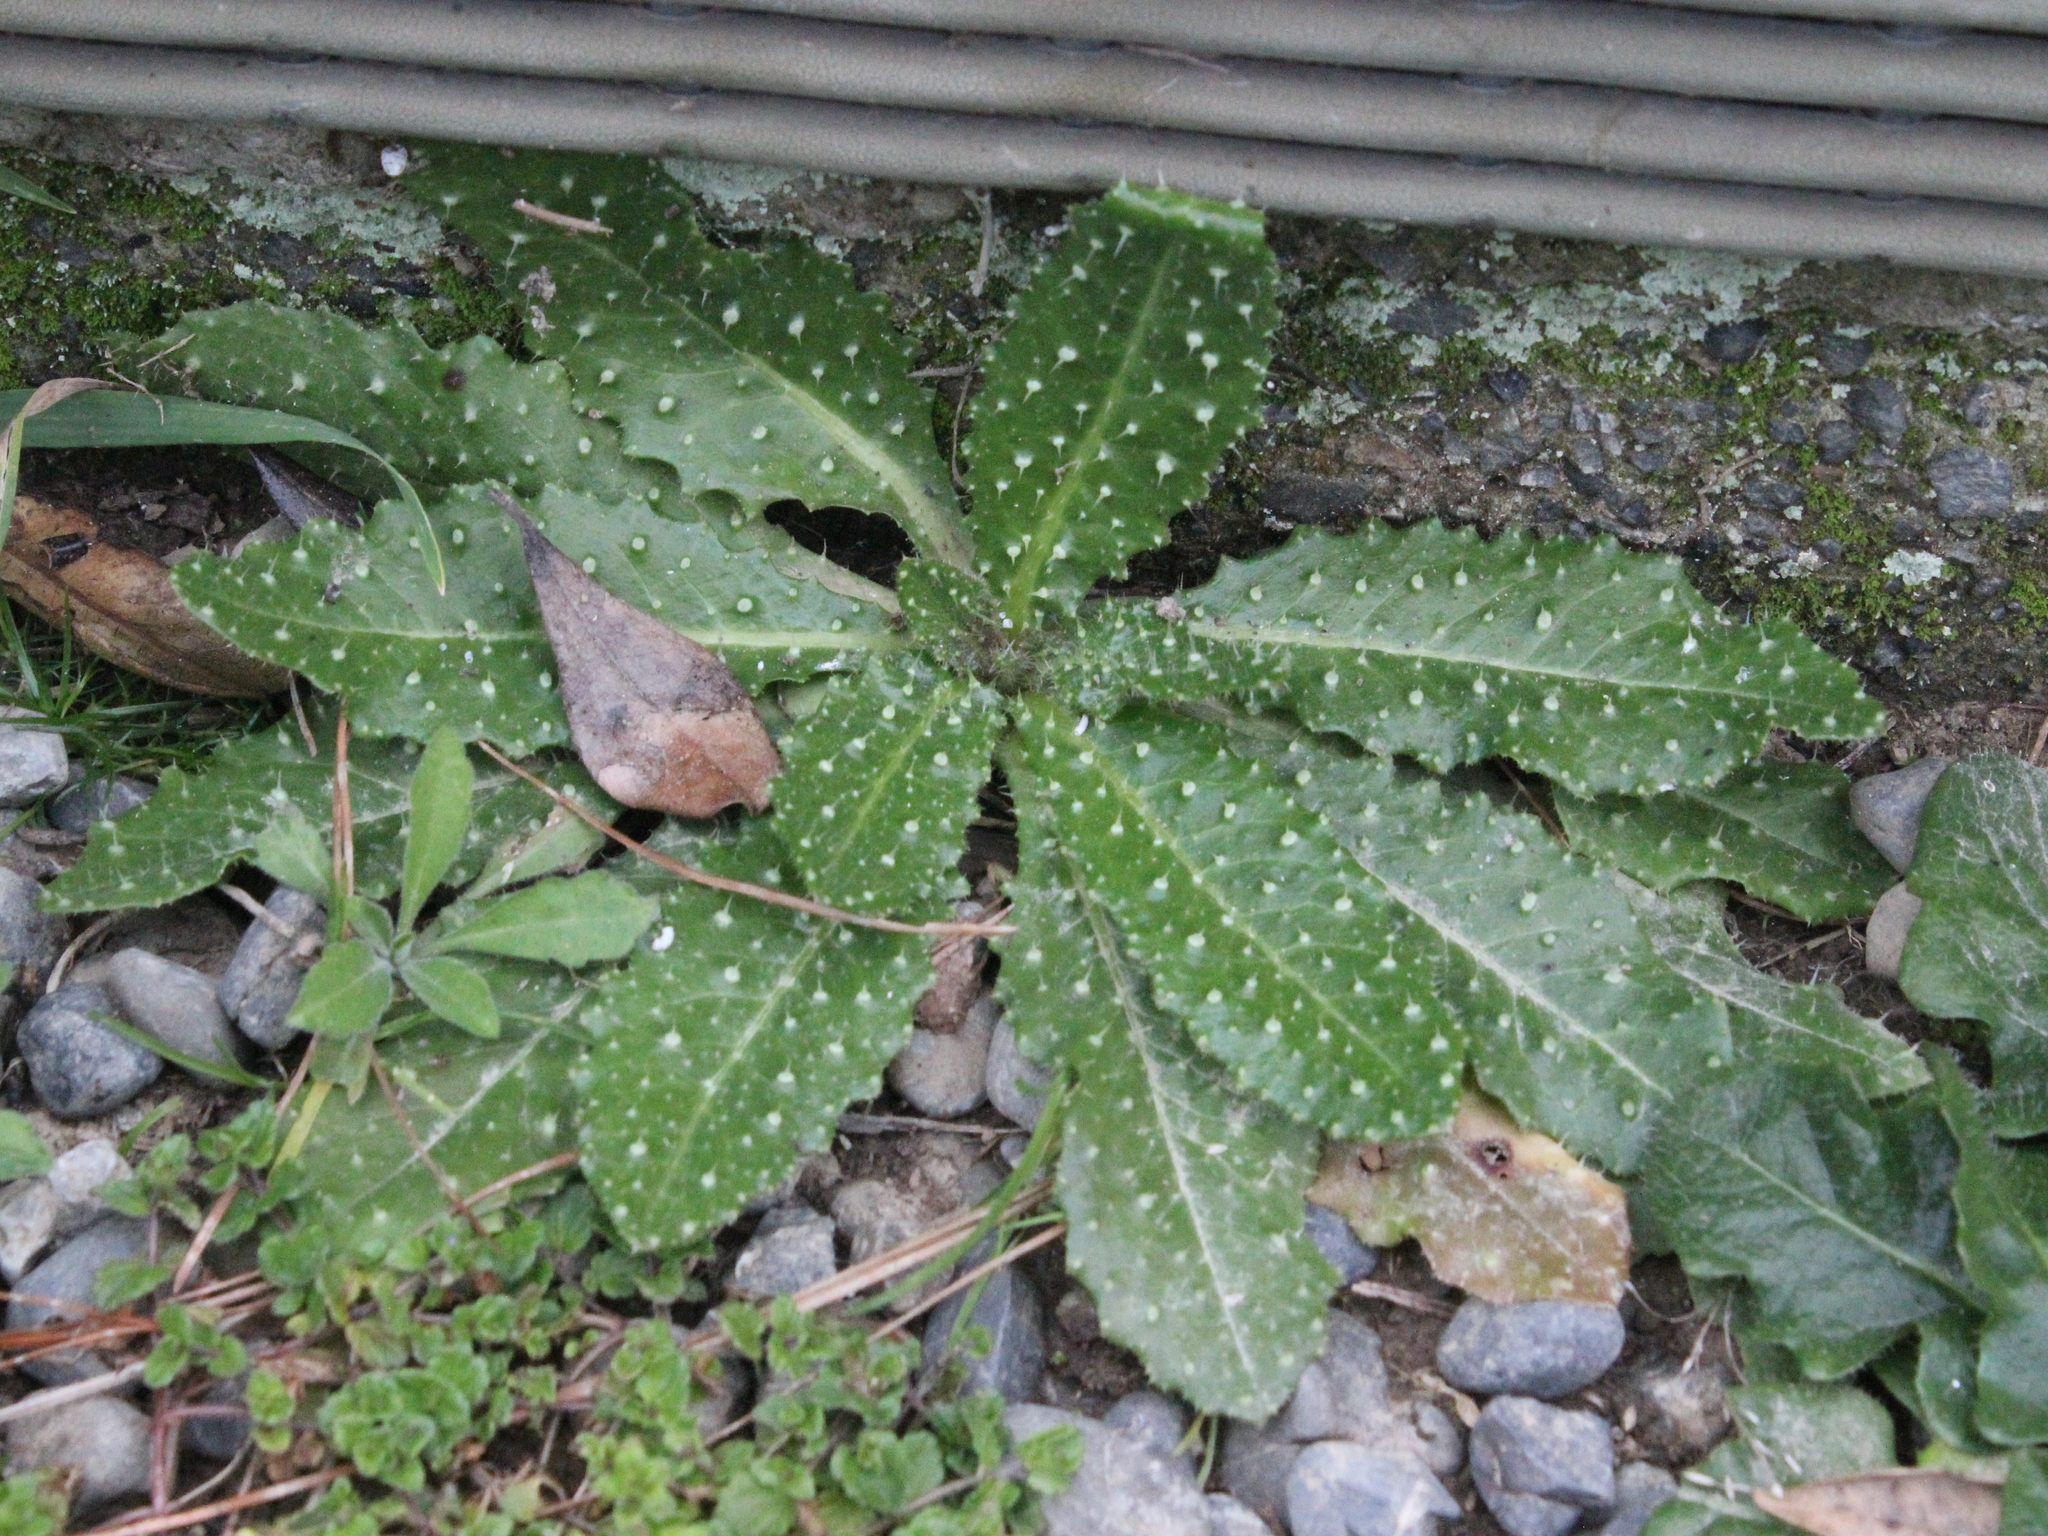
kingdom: Plantae
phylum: Tracheophyta
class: Magnoliopsida
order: Asterales
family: Asteraceae
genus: Helminthotheca
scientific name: Helminthotheca echioides
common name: Ox-tongue
